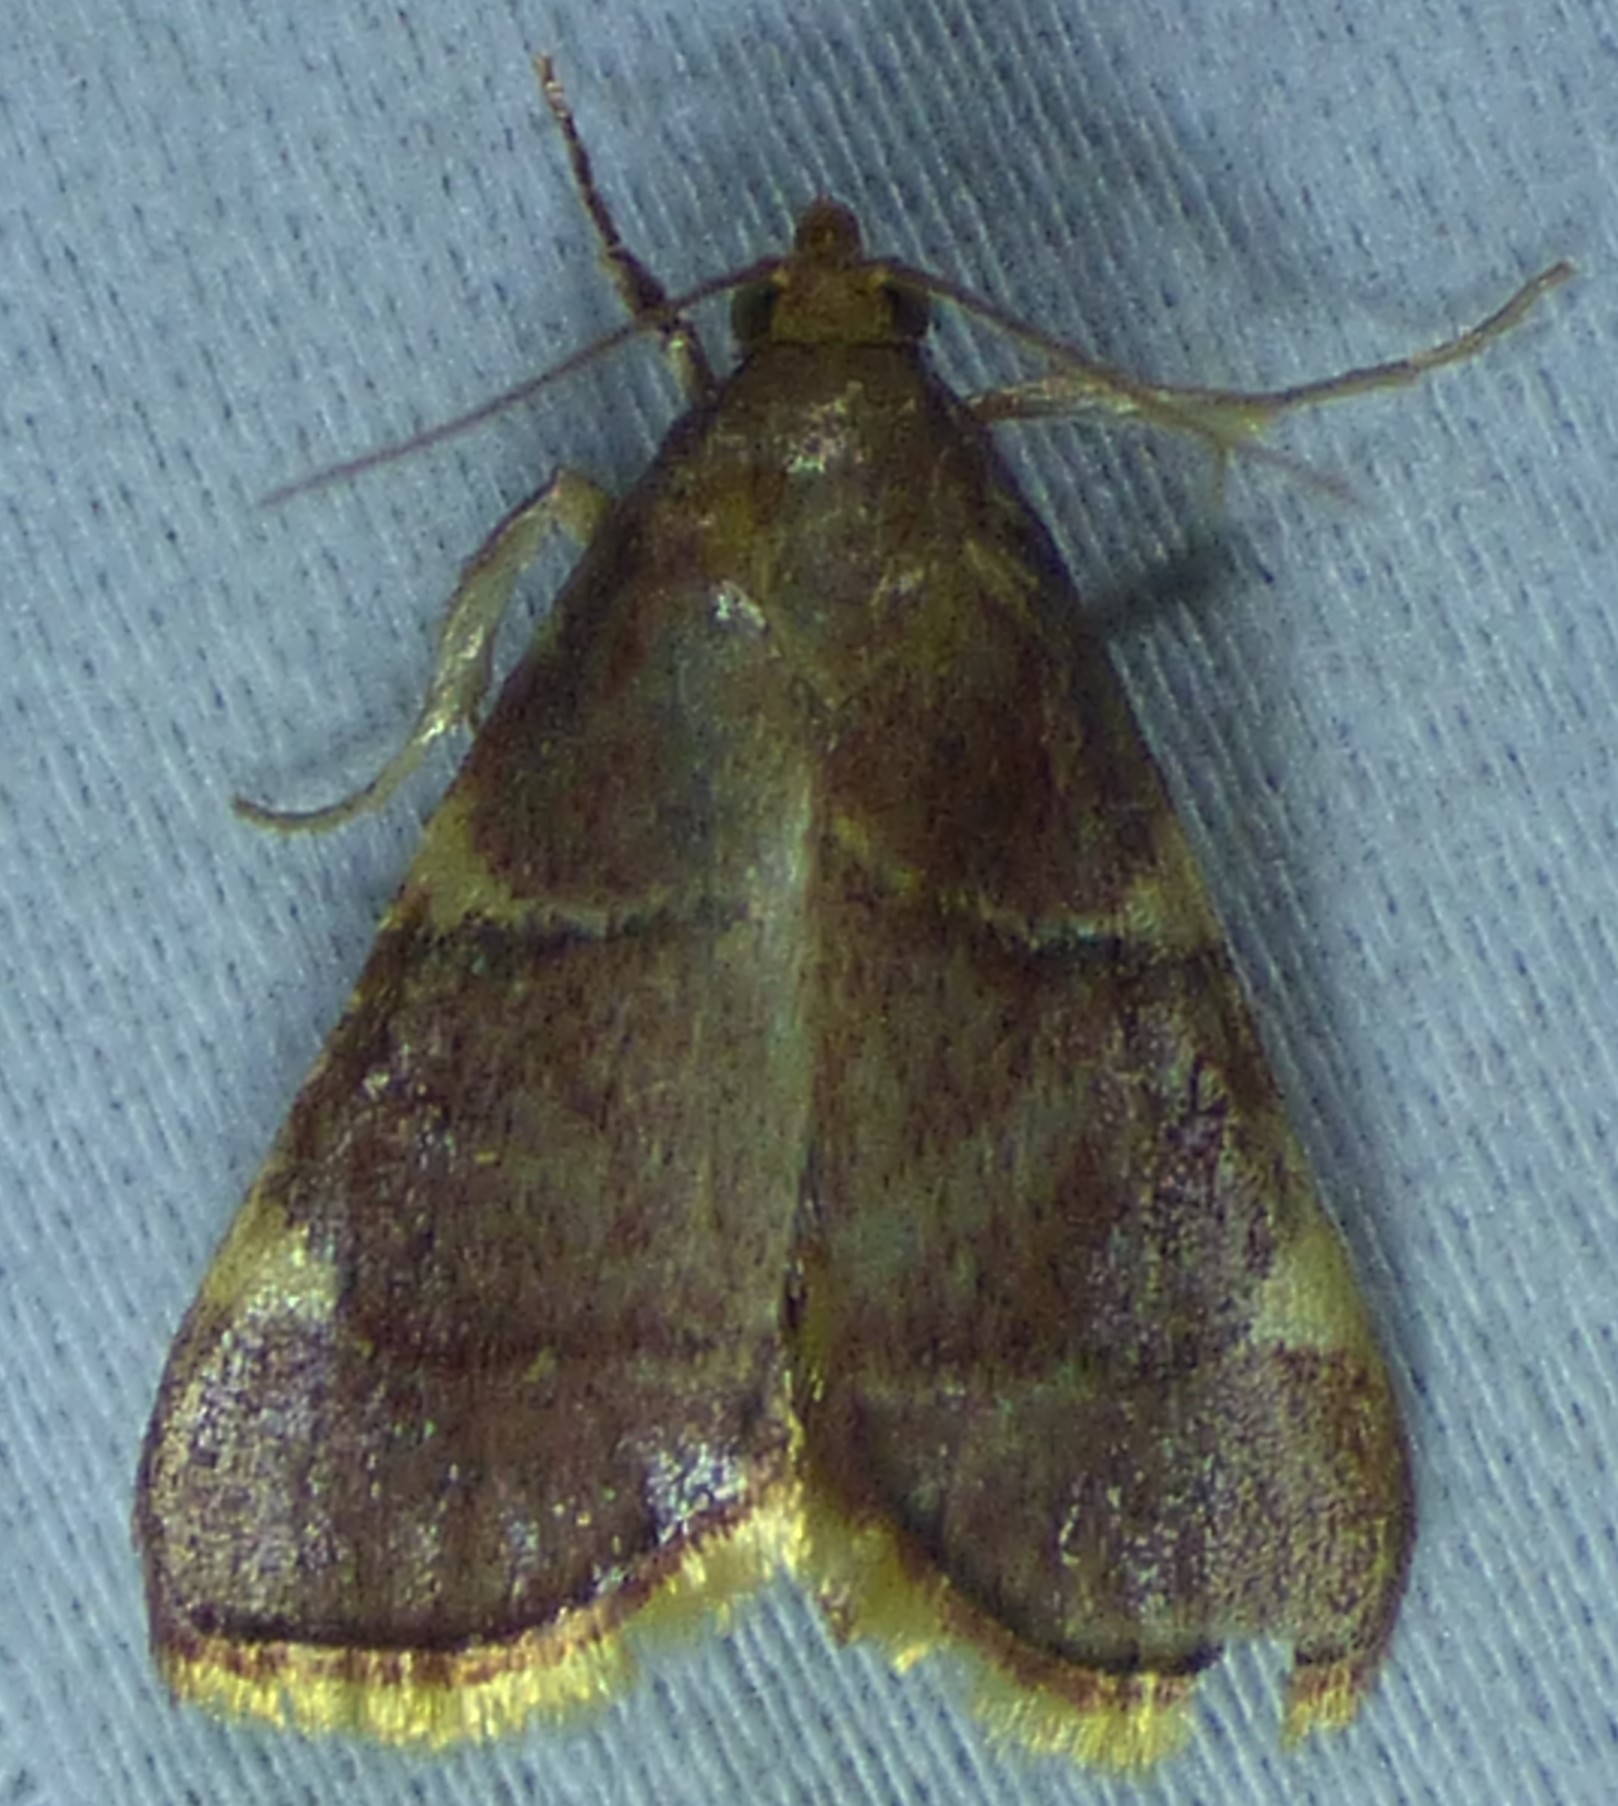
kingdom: Animalia
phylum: Arthropoda
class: Insecta
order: Lepidoptera
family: Pyralidae
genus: Hypsopygia
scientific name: Hypsopygia olinalis
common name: Yellow-fringed dolichomia moth
